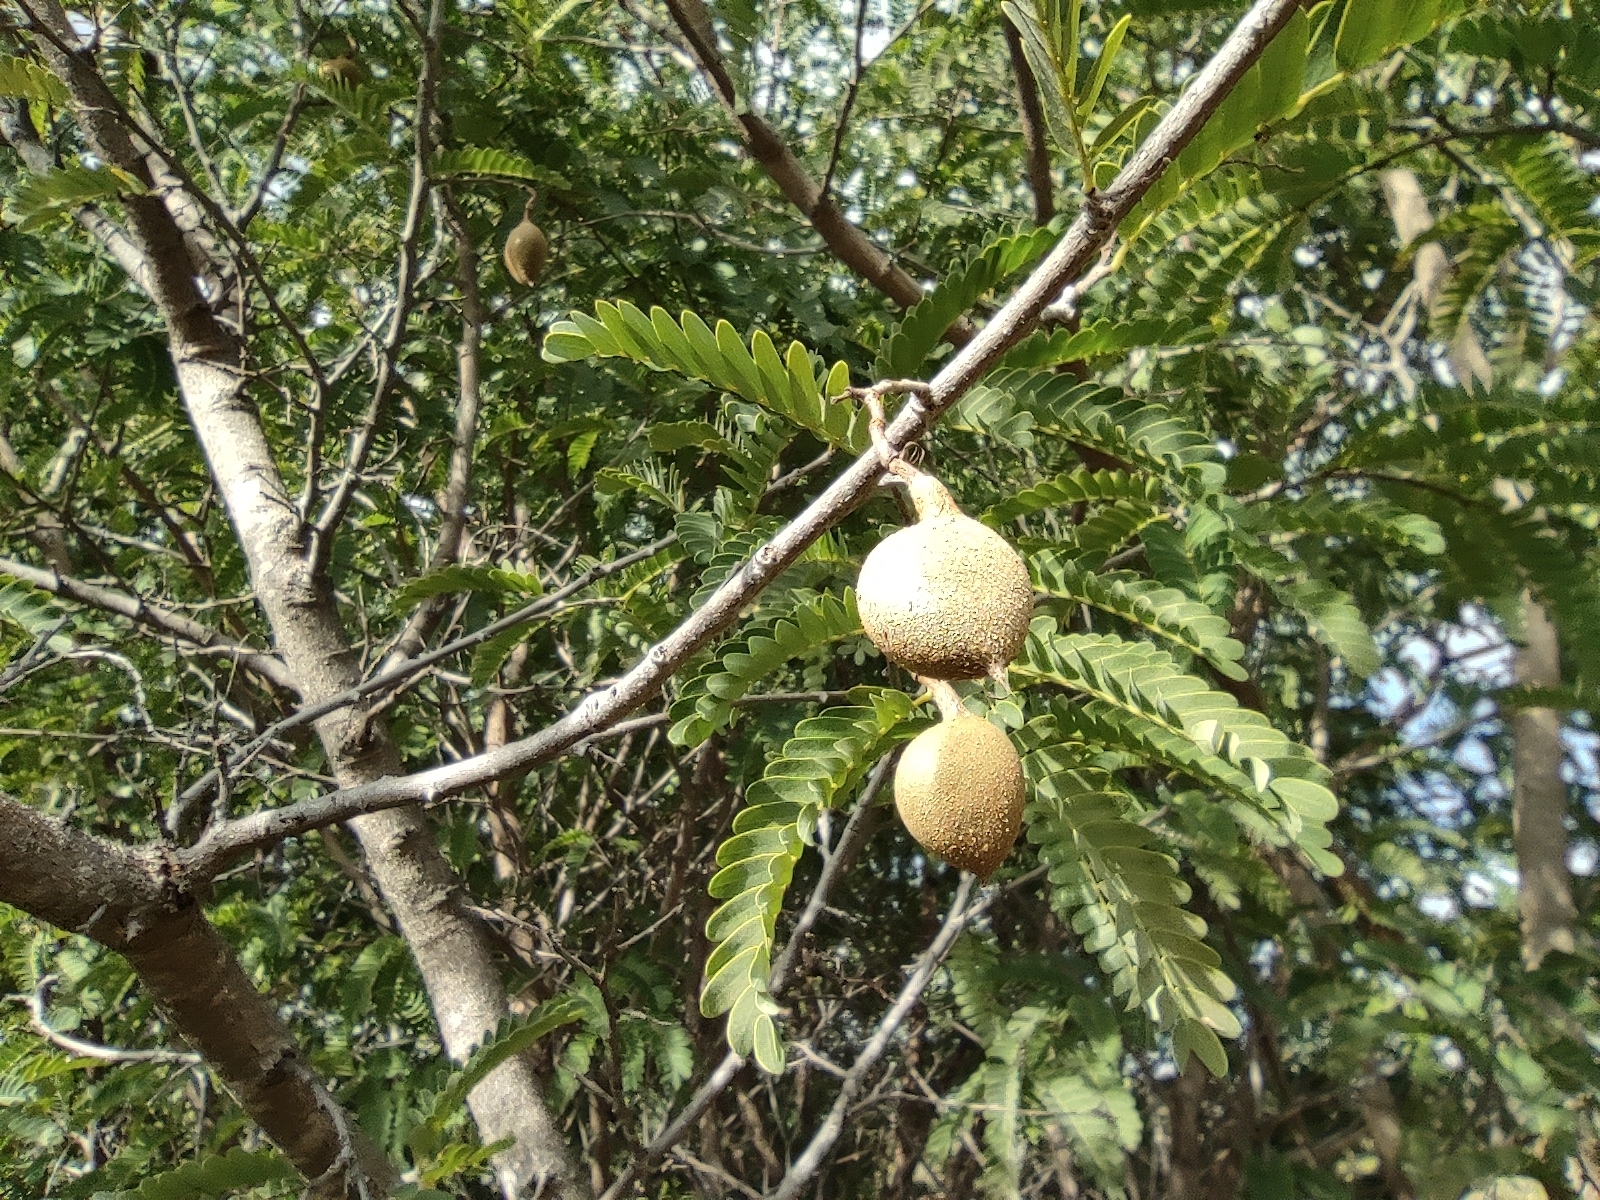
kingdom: Plantae
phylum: Tracheophyta
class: Magnoliopsida
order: Fabales
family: Fabaceae
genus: Tamarindus
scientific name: Tamarindus indica
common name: Tamarind
